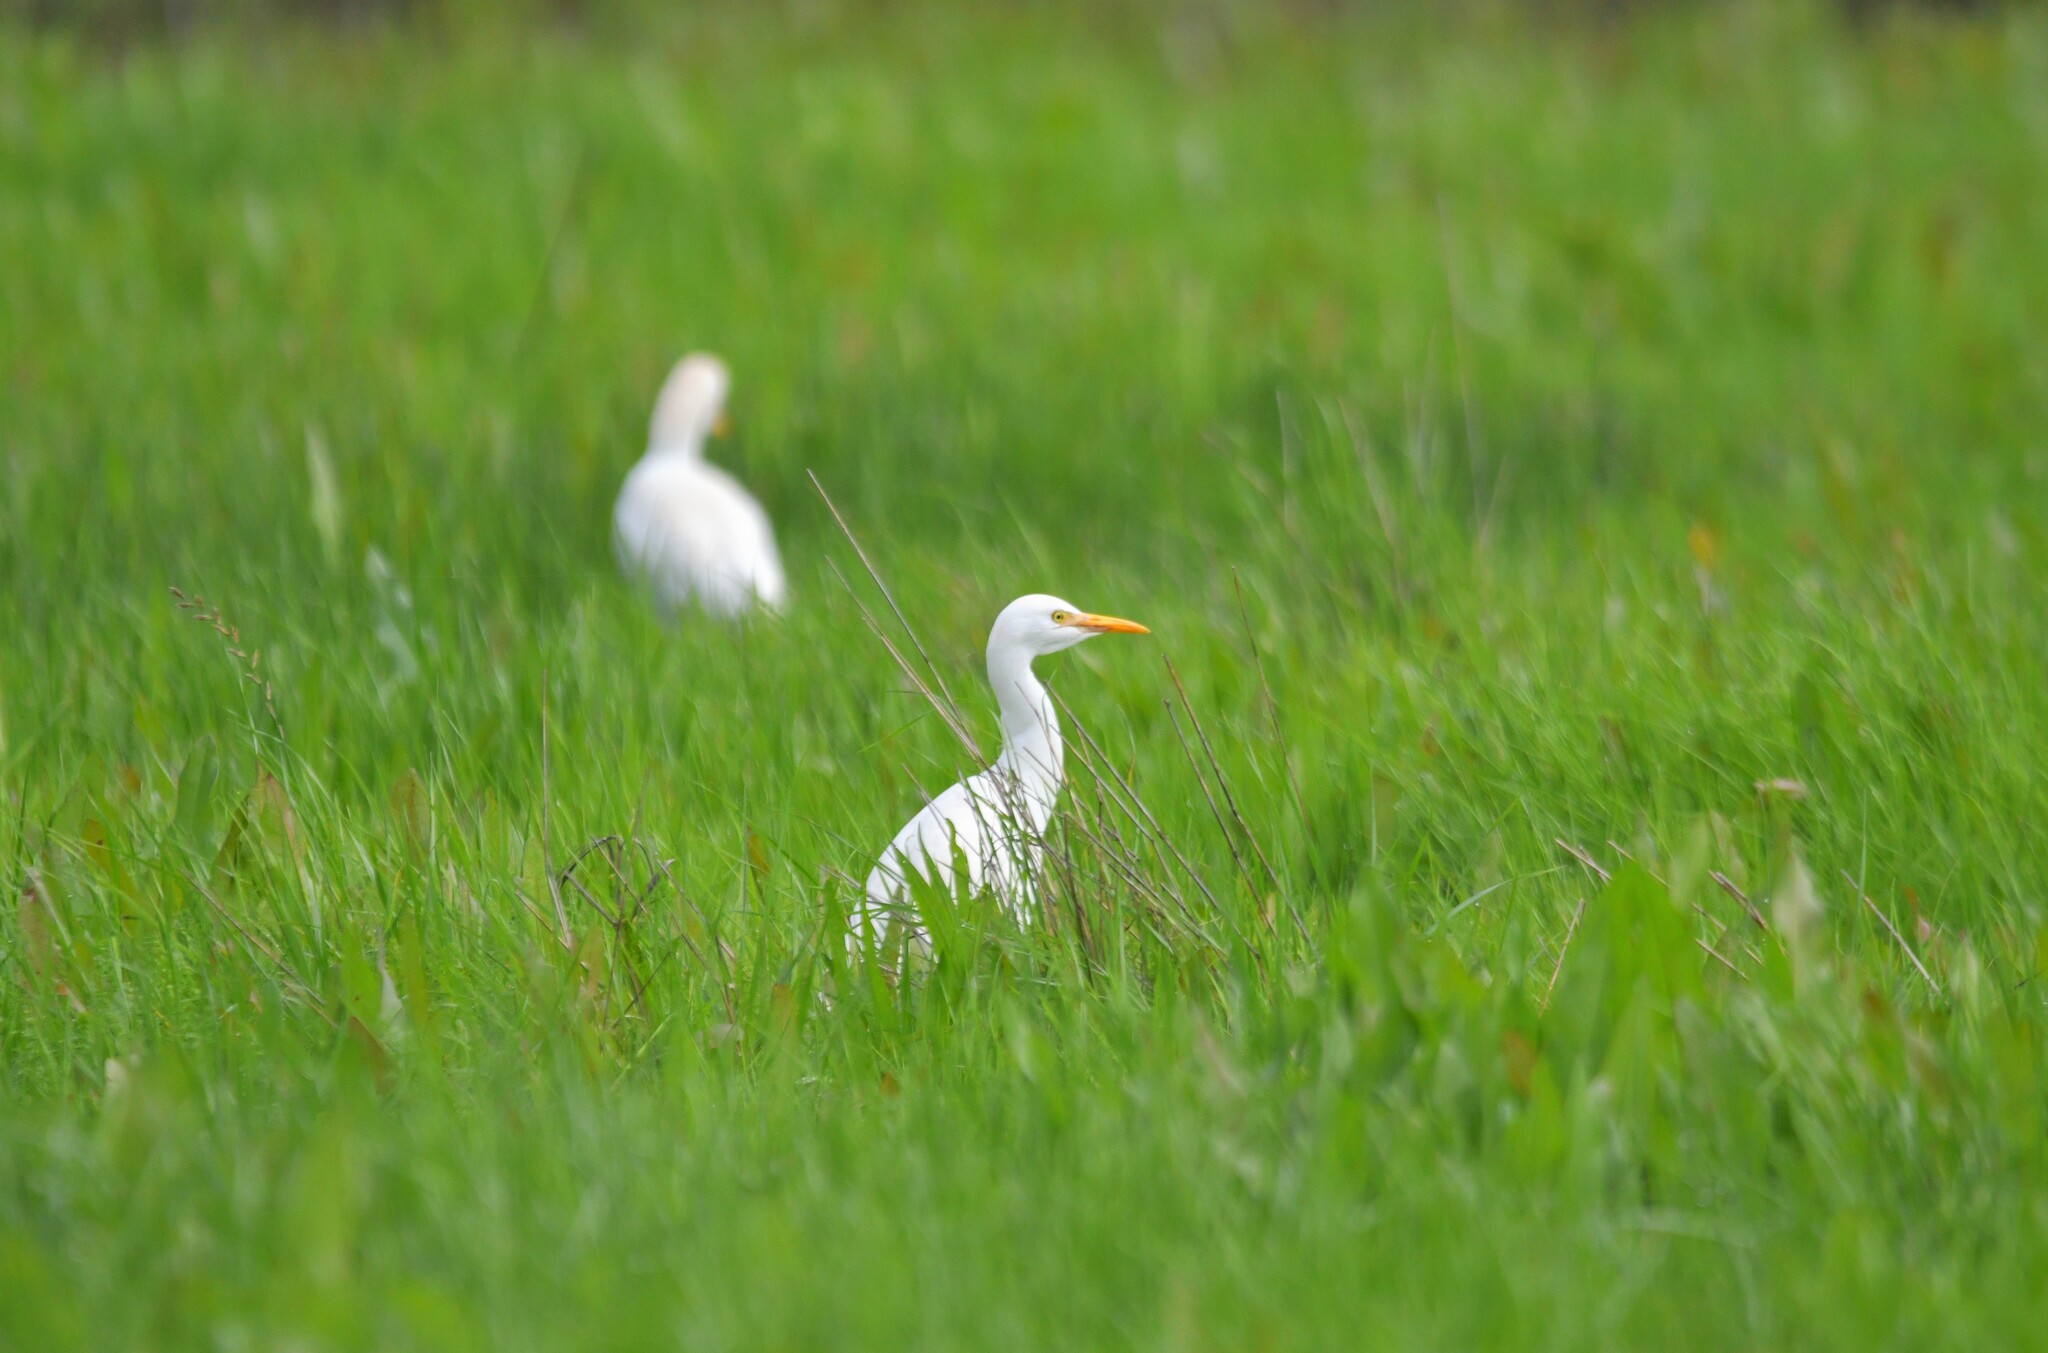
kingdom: Animalia
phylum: Chordata
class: Aves
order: Pelecaniformes
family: Ardeidae
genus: Bubulcus
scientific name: Bubulcus ibis
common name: Cattle egret
